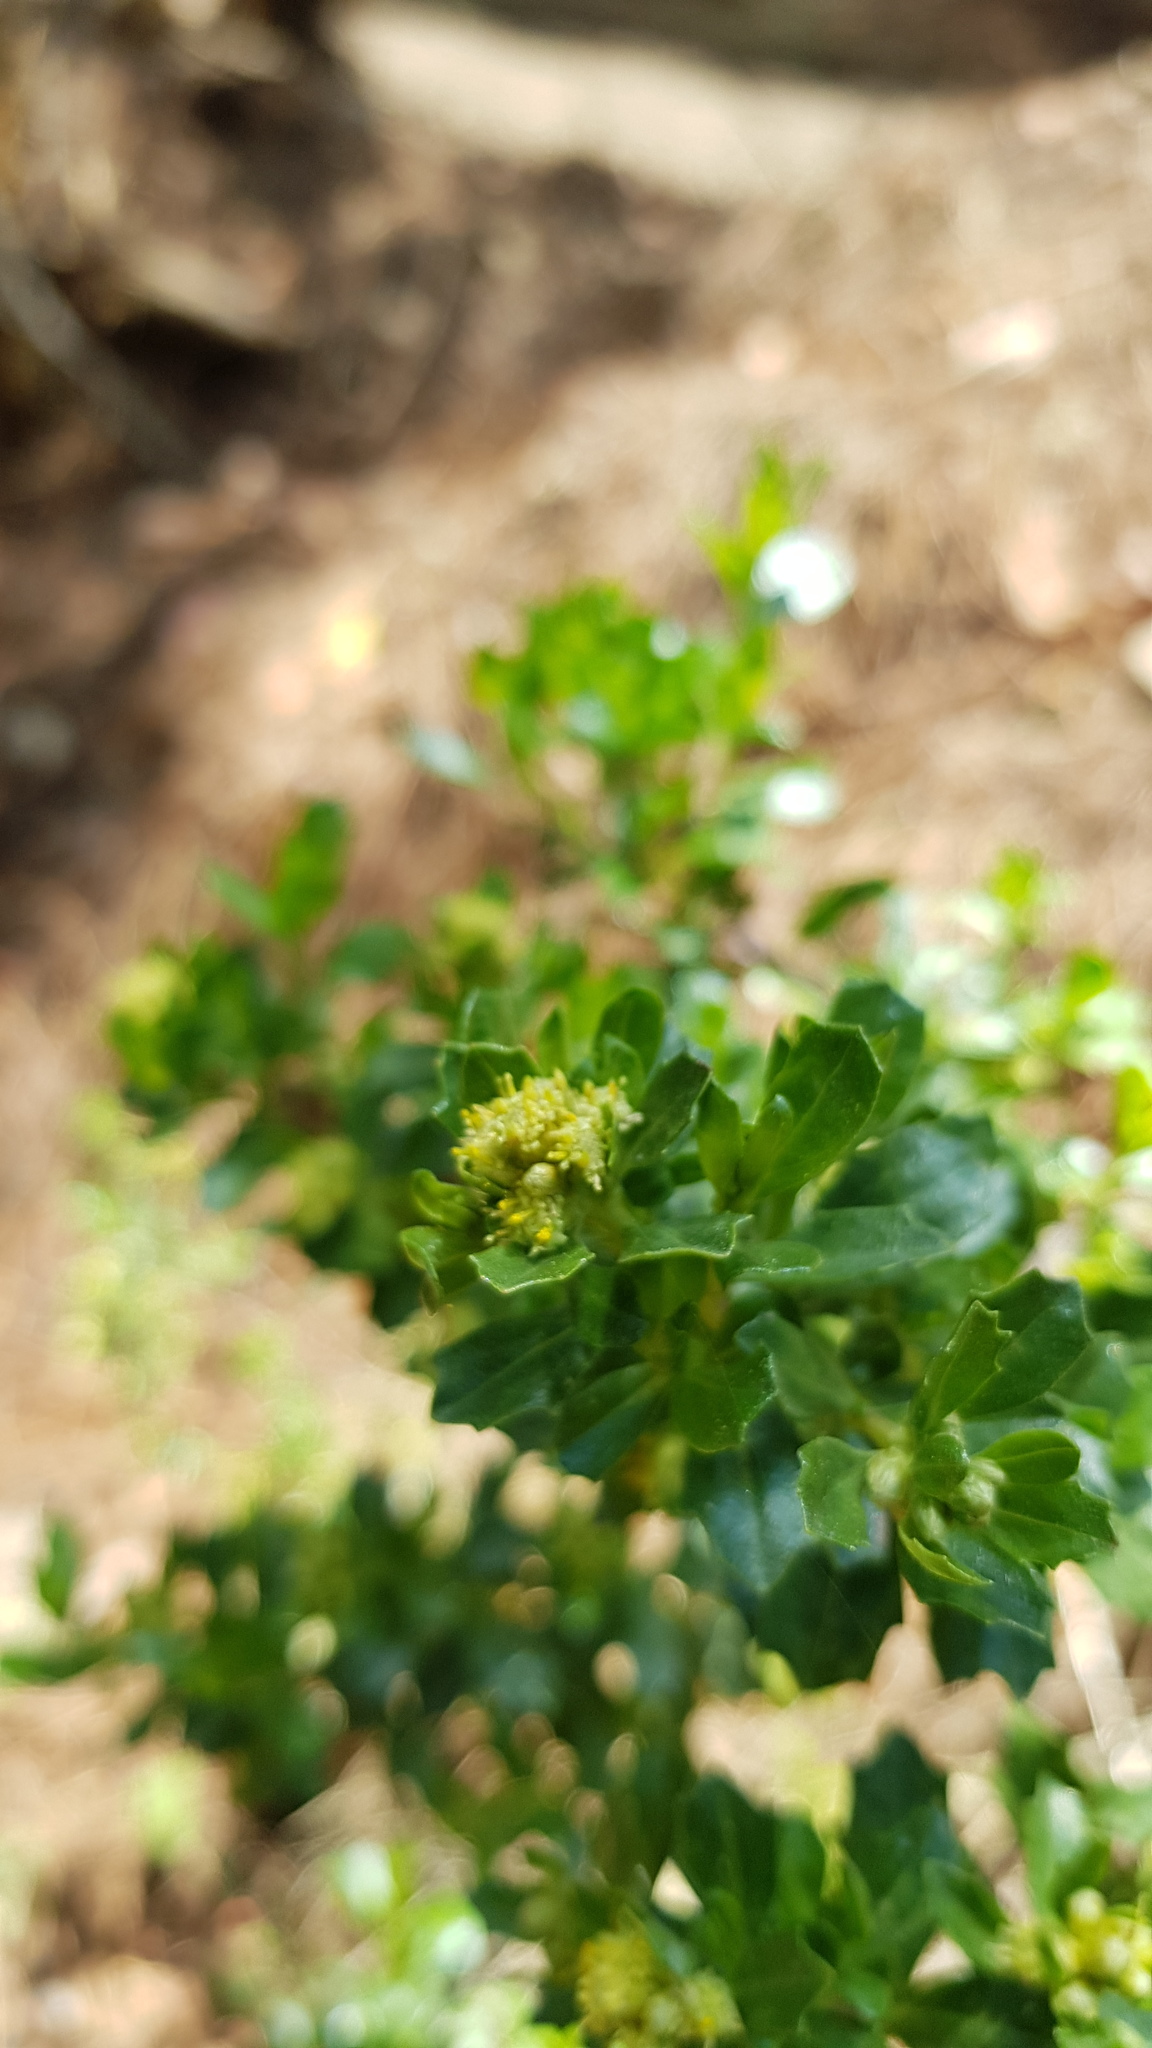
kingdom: Plantae
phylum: Tracheophyta
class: Magnoliopsida
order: Asterales
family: Asteraceae
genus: Baccharis
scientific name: Baccharis conferta
